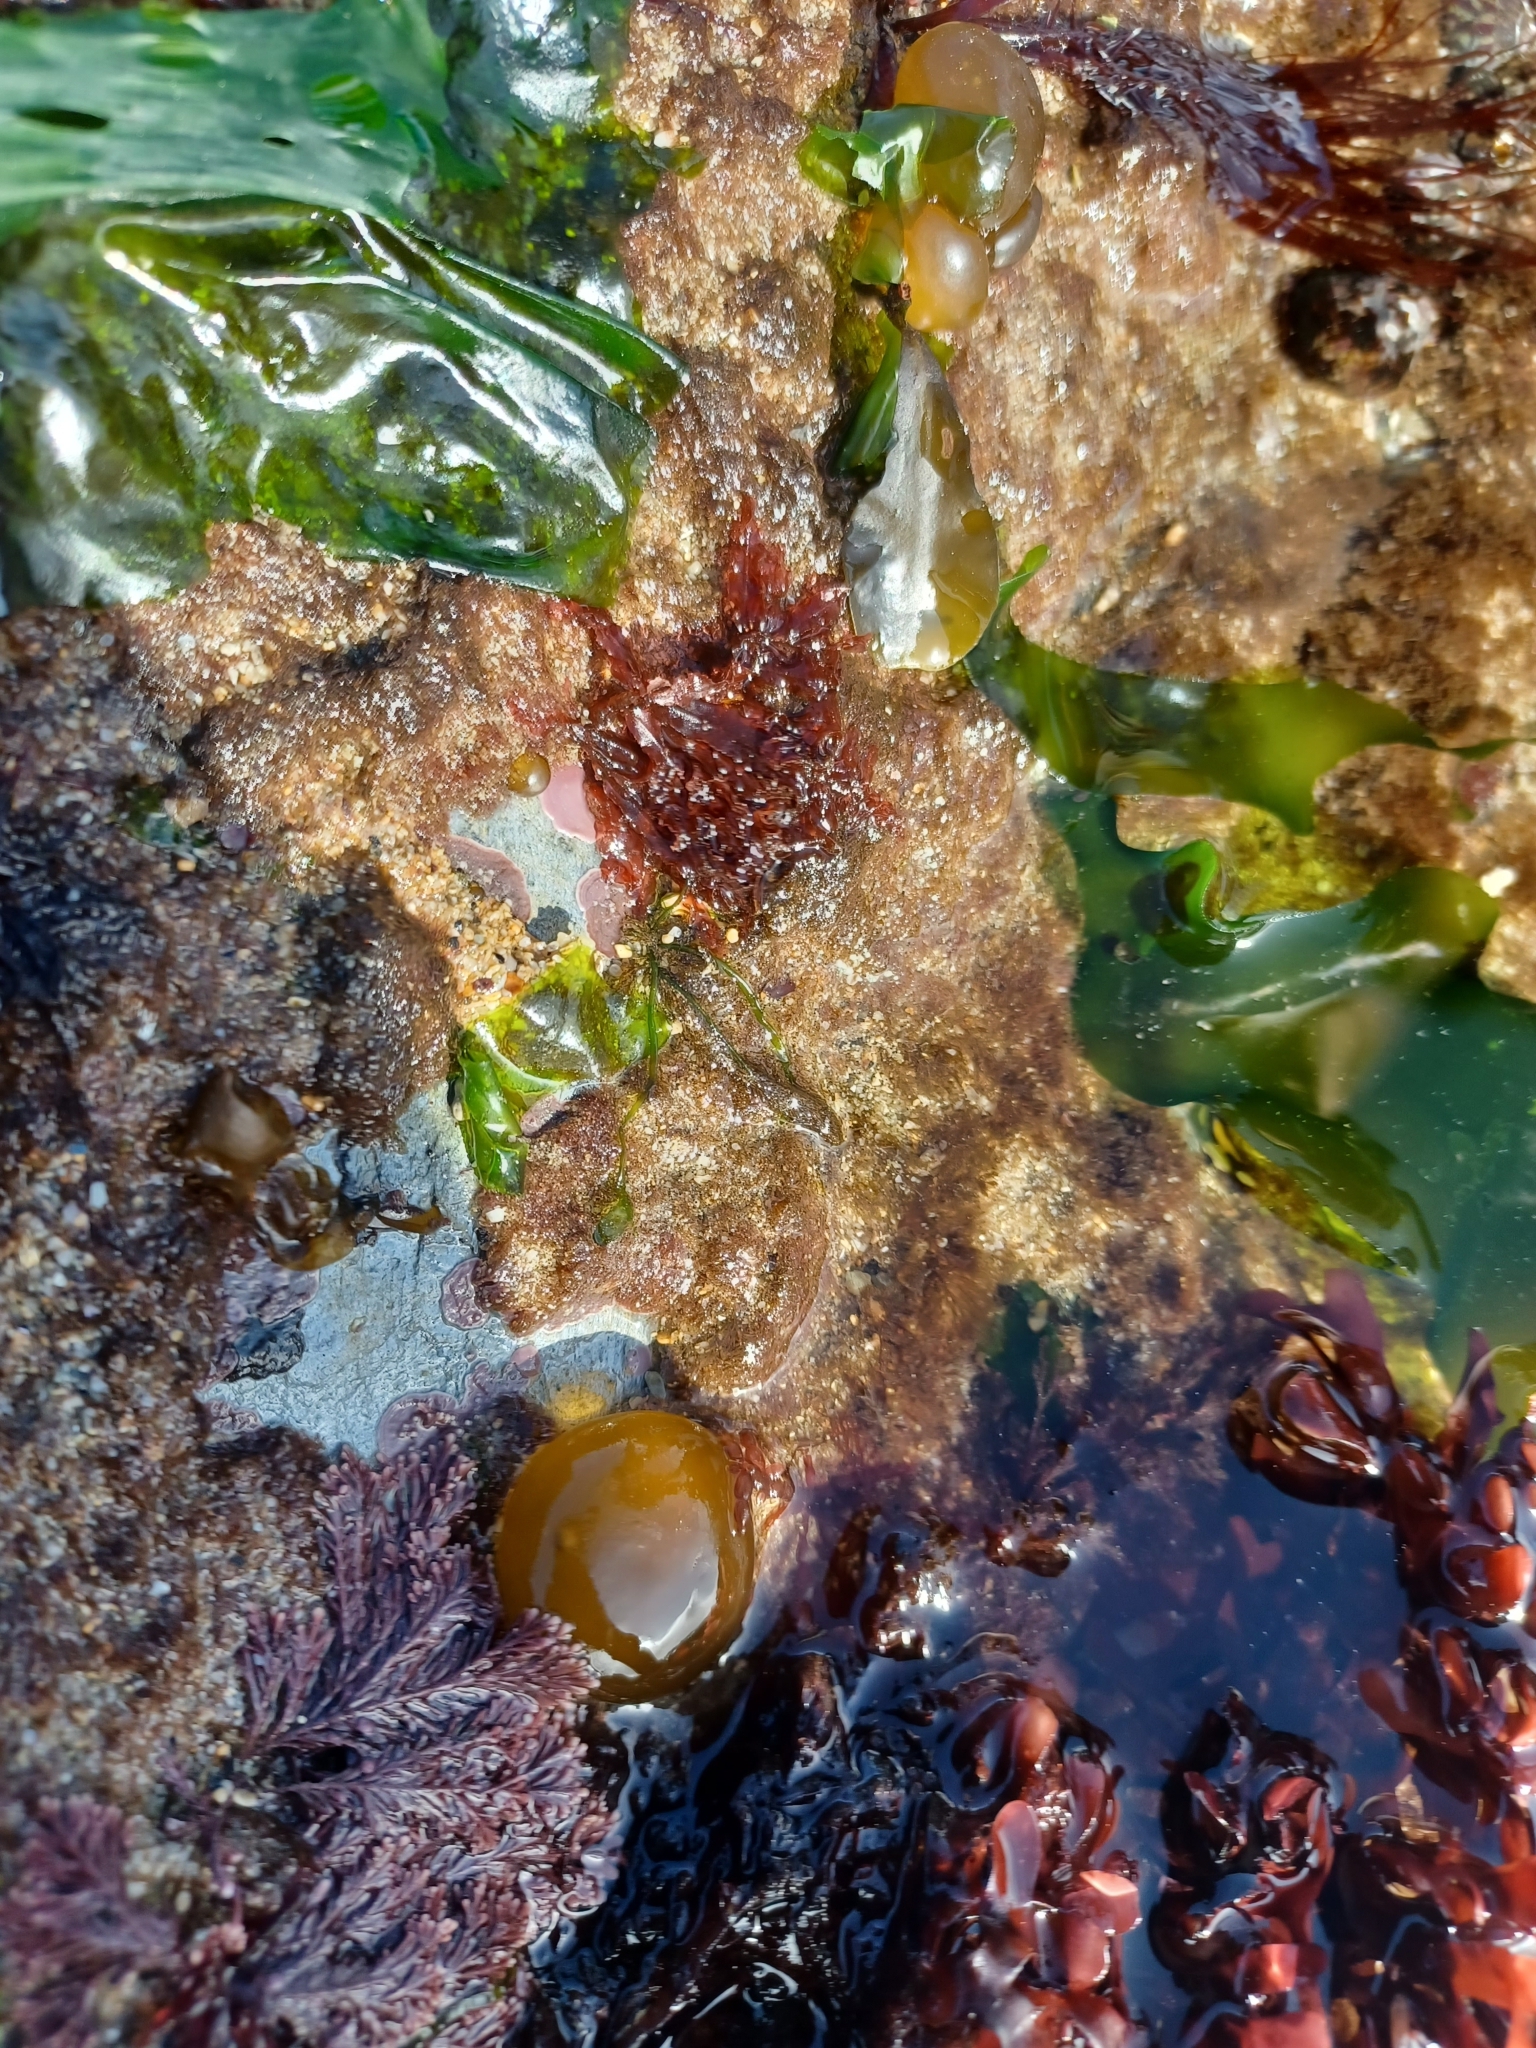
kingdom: Chromista
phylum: Ochrophyta
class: Phaeophyceae
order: Scytosiphonales
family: Scytosiphonaceae
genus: Colpomenia
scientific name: Colpomenia peregrina
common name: Oyster thief
